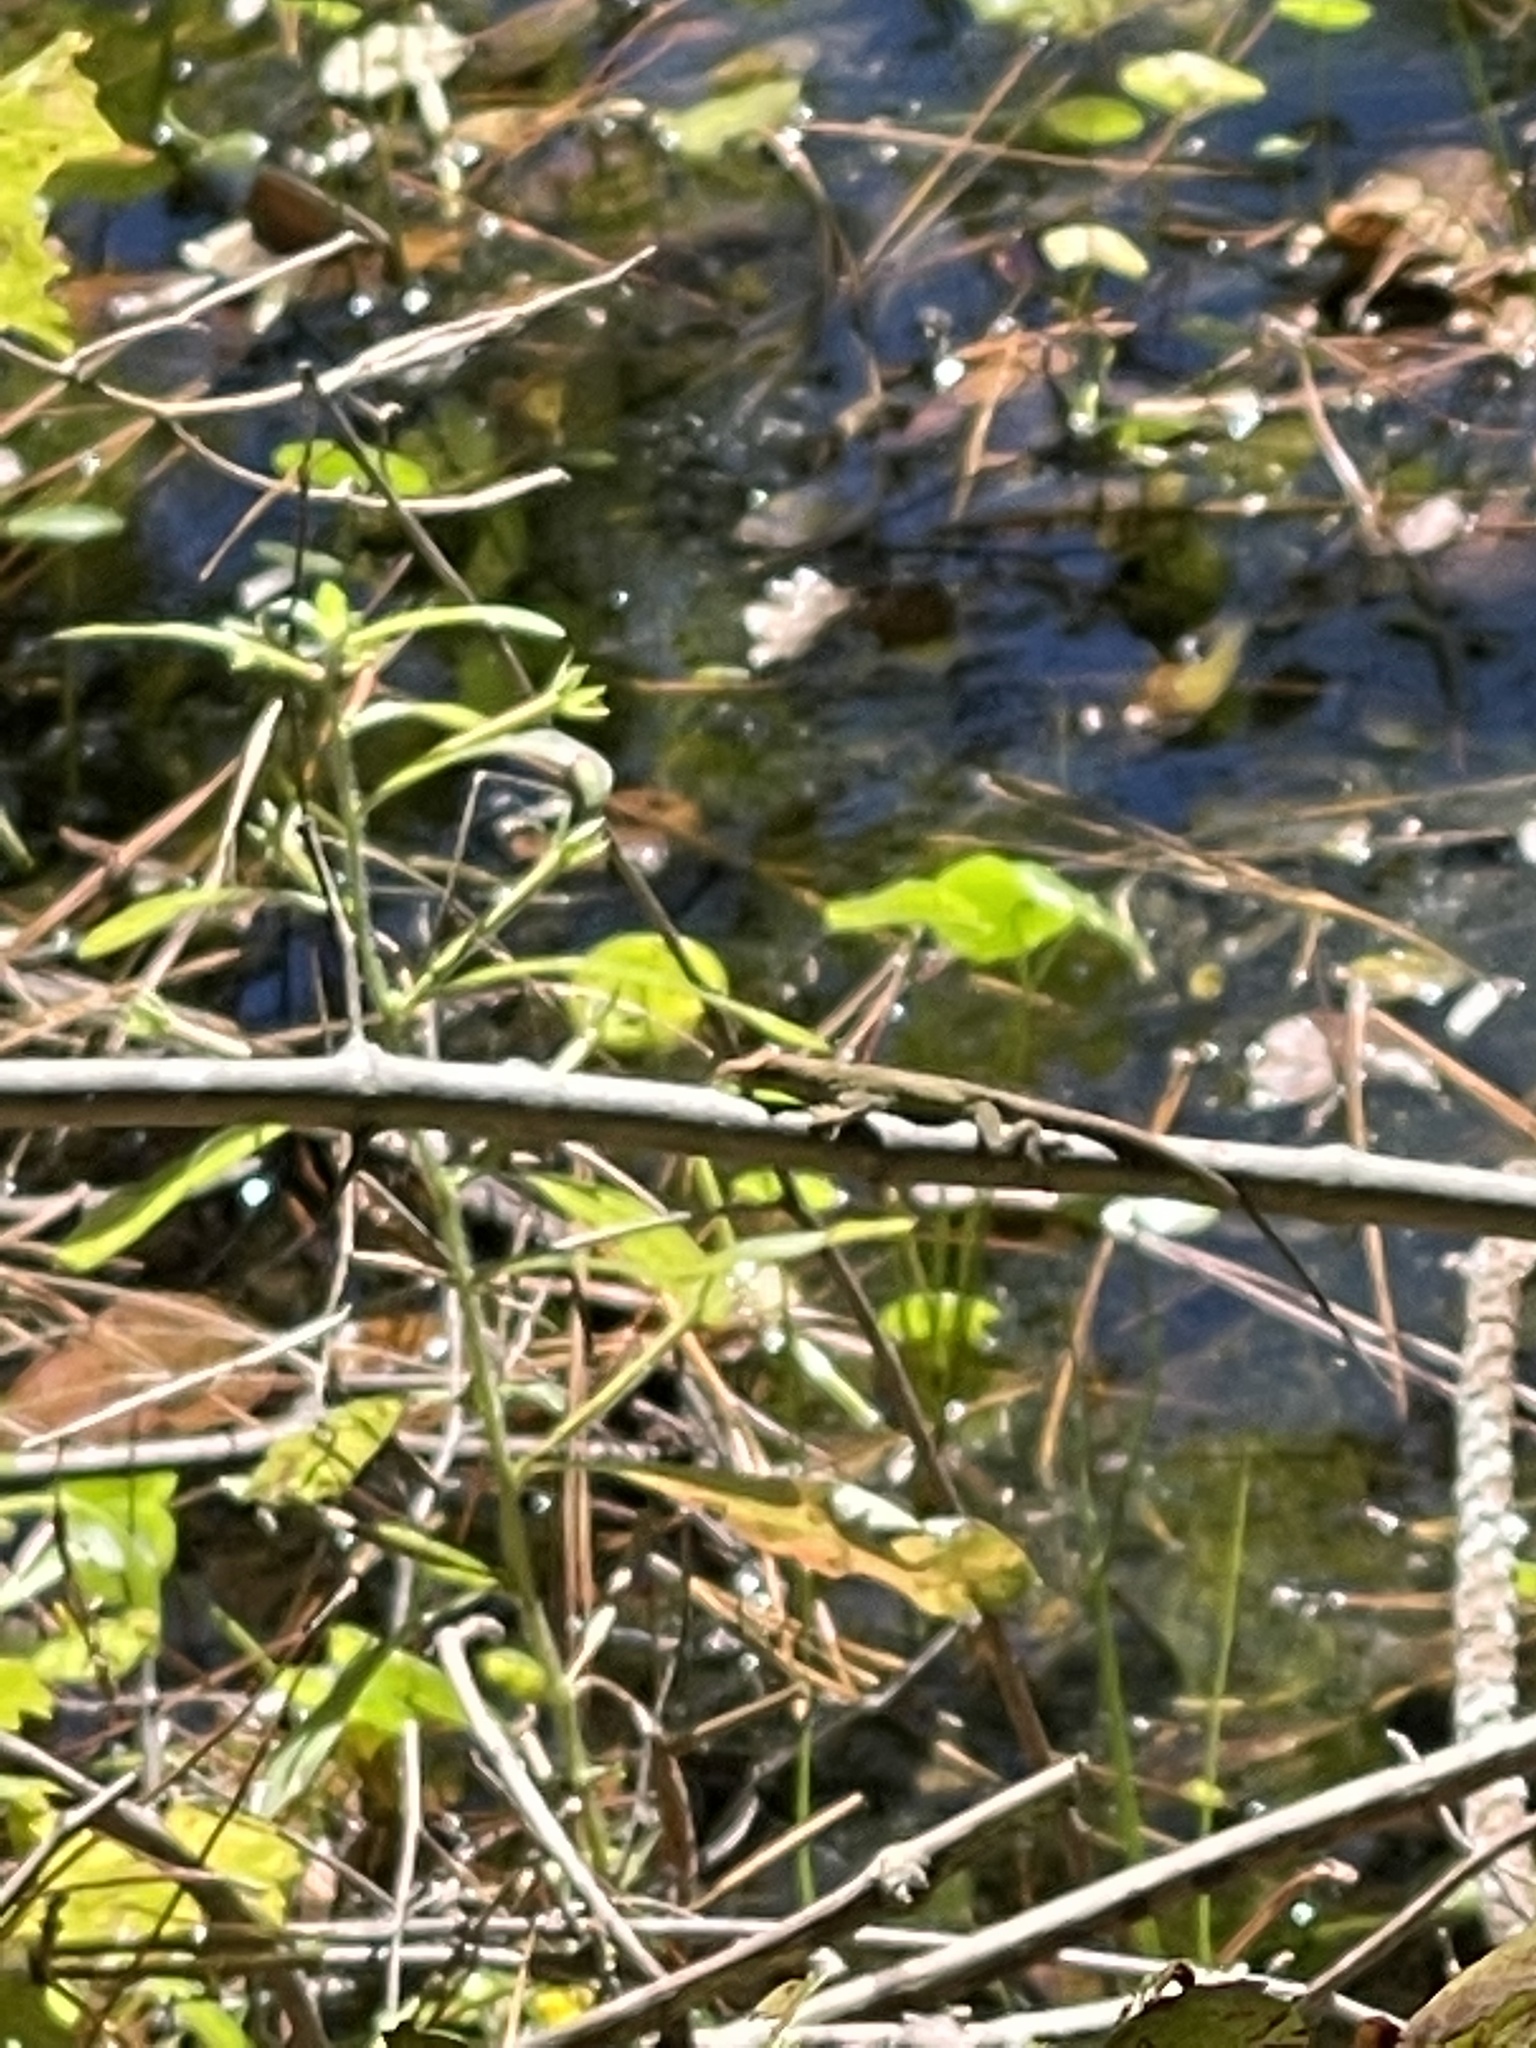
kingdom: Animalia
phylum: Chordata
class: Squamata
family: Dactyloidae
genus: Anolis
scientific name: Anolis carolinensis
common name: Green anole
